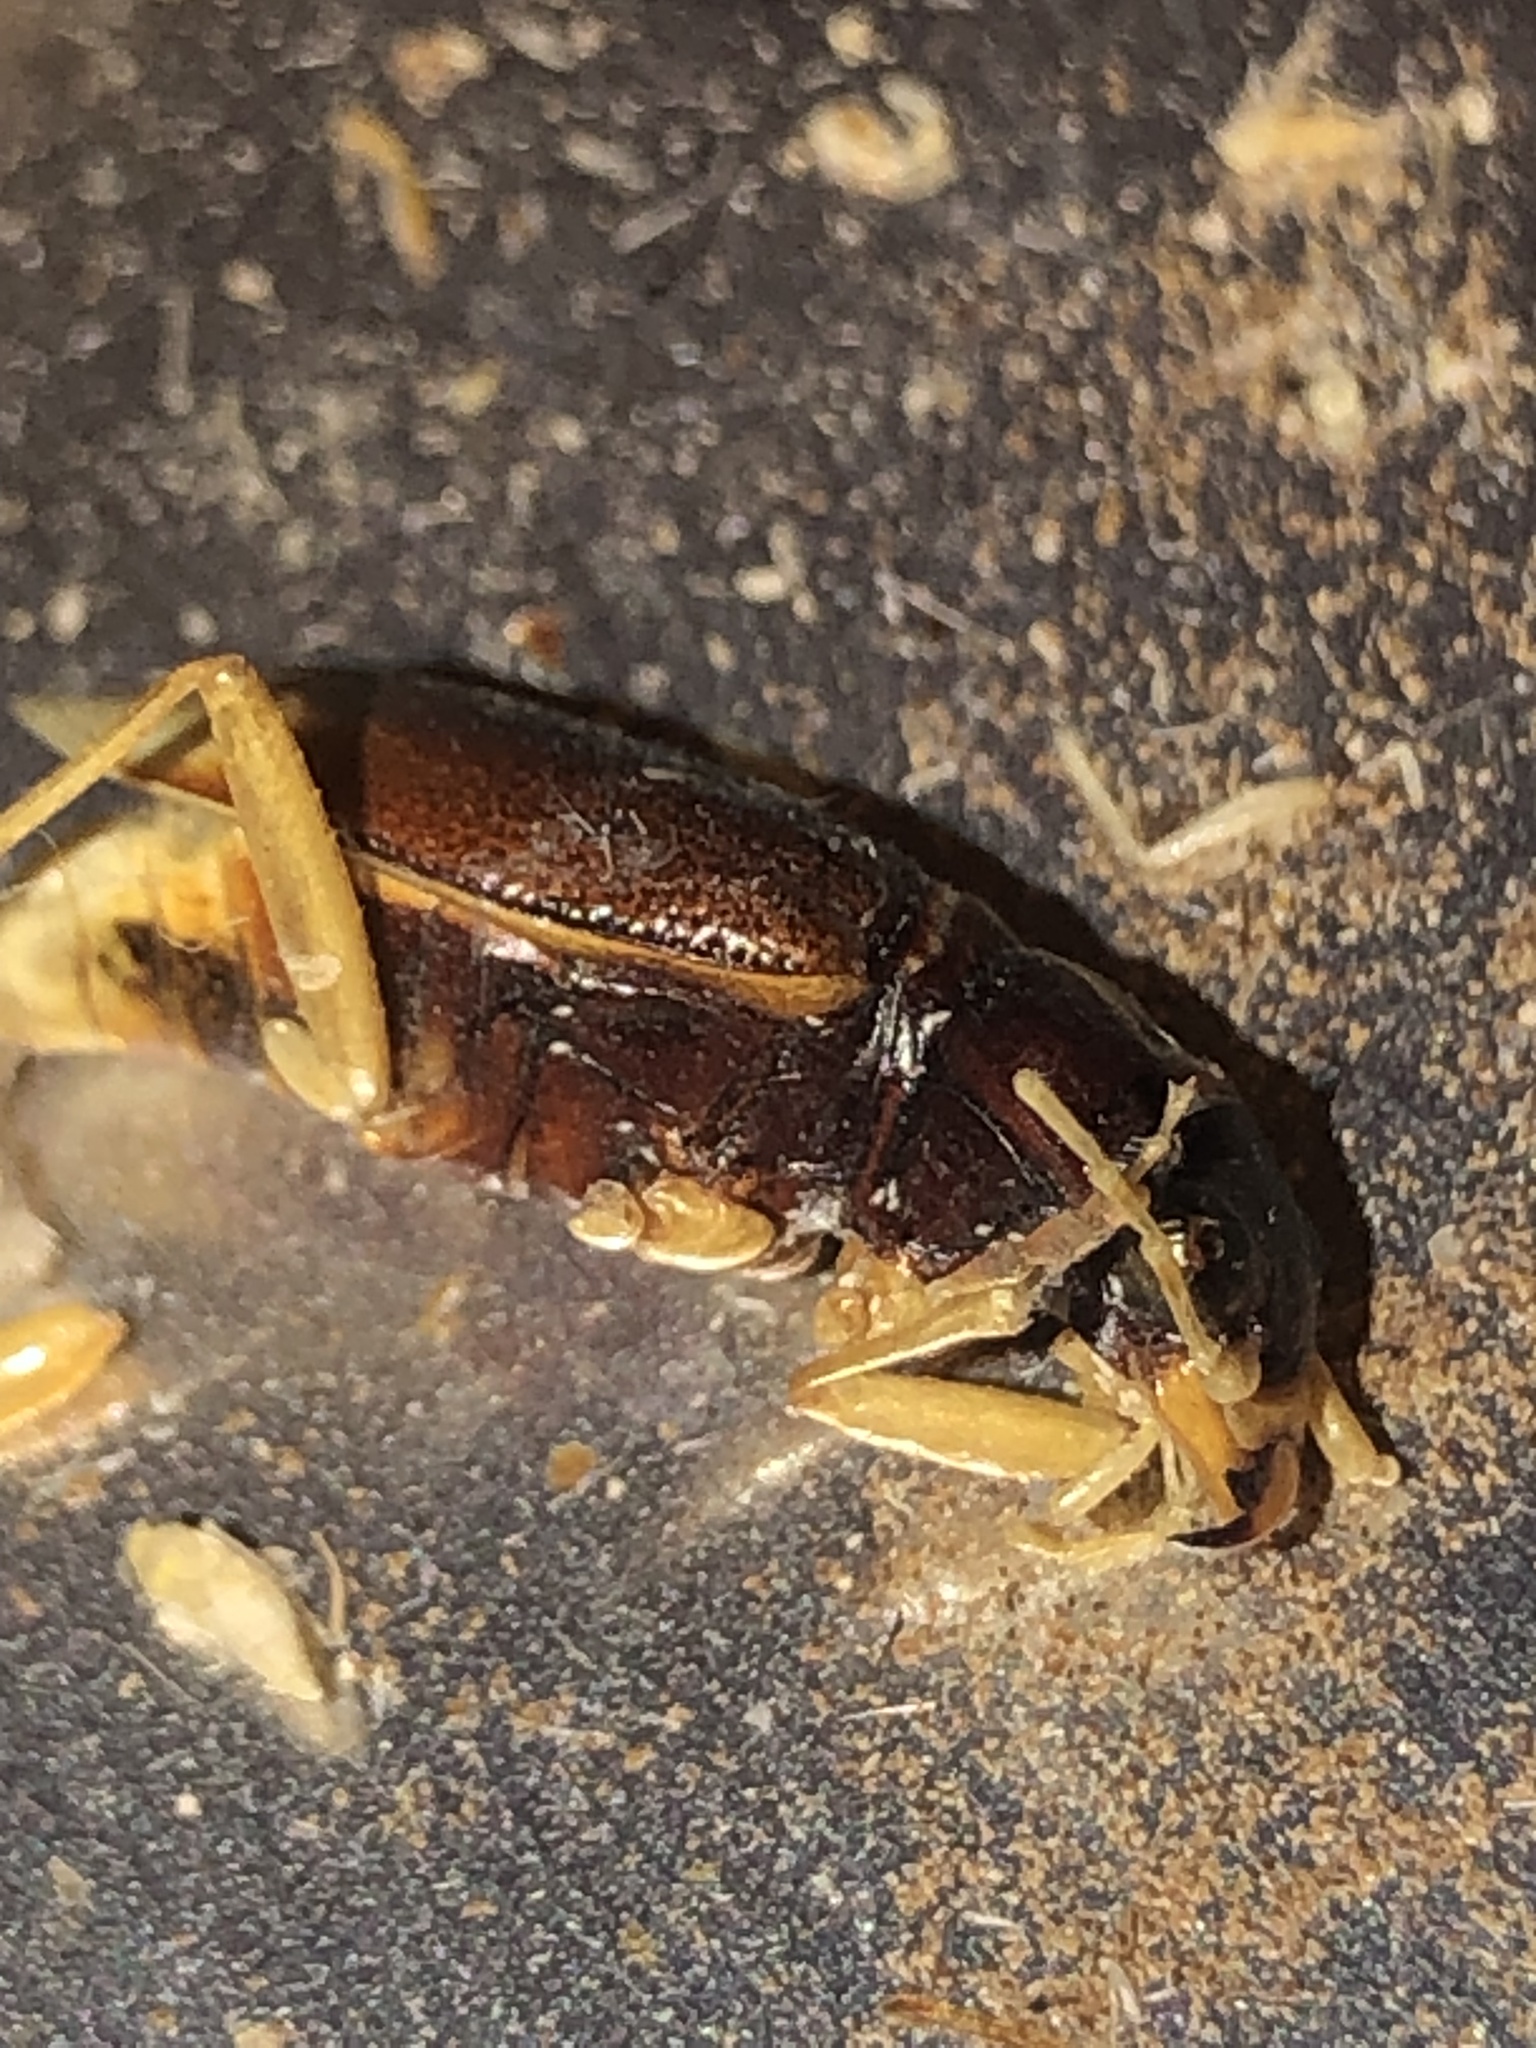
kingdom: Animalia
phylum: Arthropoda
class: Insecta
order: Coleoptera
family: Carabidae
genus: Tetracha
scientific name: Tetracha virginica
